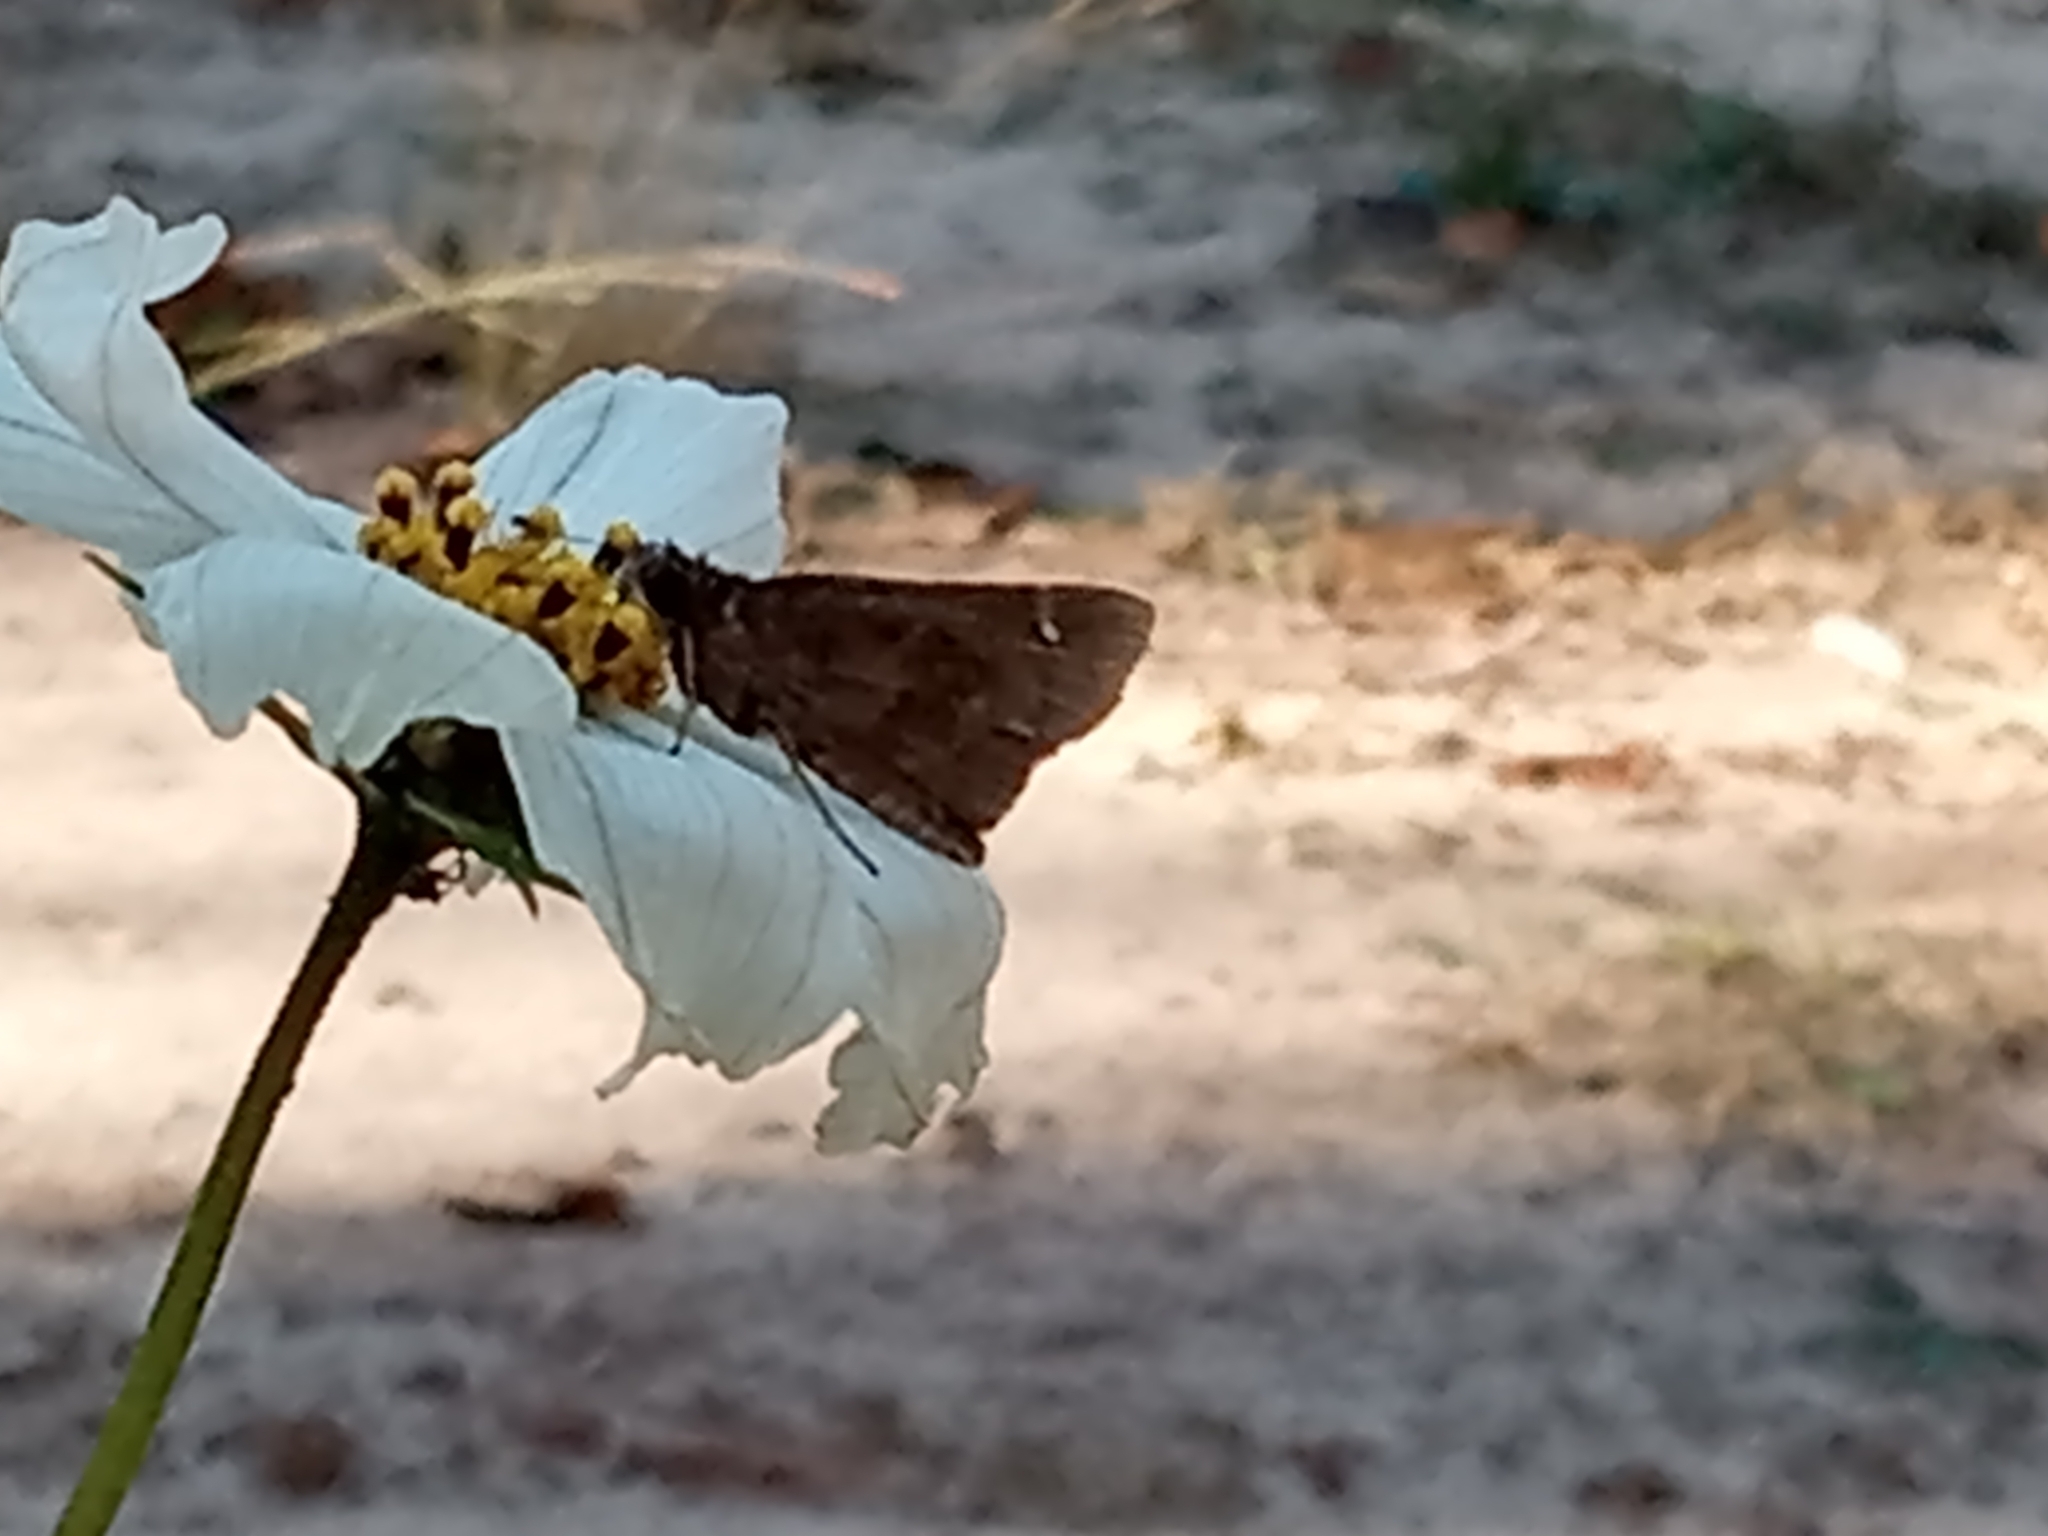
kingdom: Animalia
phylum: Arthropoda
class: Insecta
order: Lepidoptera
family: Hesperiidae
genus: Lerema
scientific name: Lerema accius
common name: Clouded skipper
